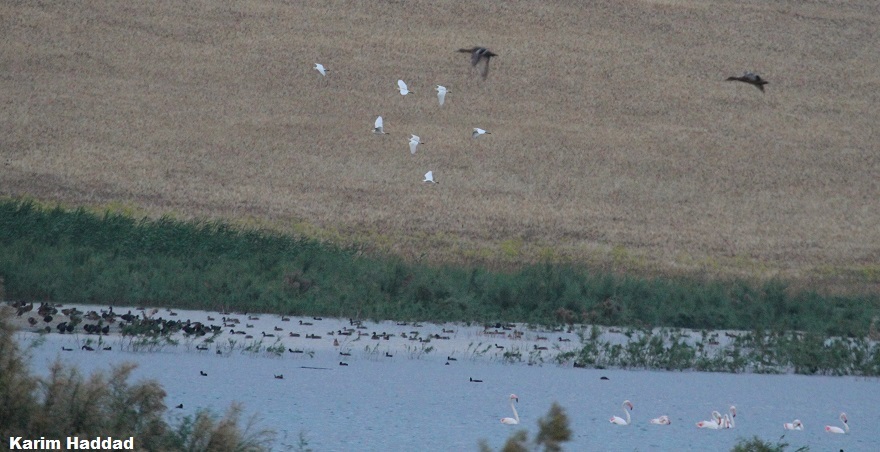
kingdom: Animalia
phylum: Chordata
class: Aves
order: Anseriformes
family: Anatidae
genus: Anas
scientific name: Anas platyrhynchos
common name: Mallard
